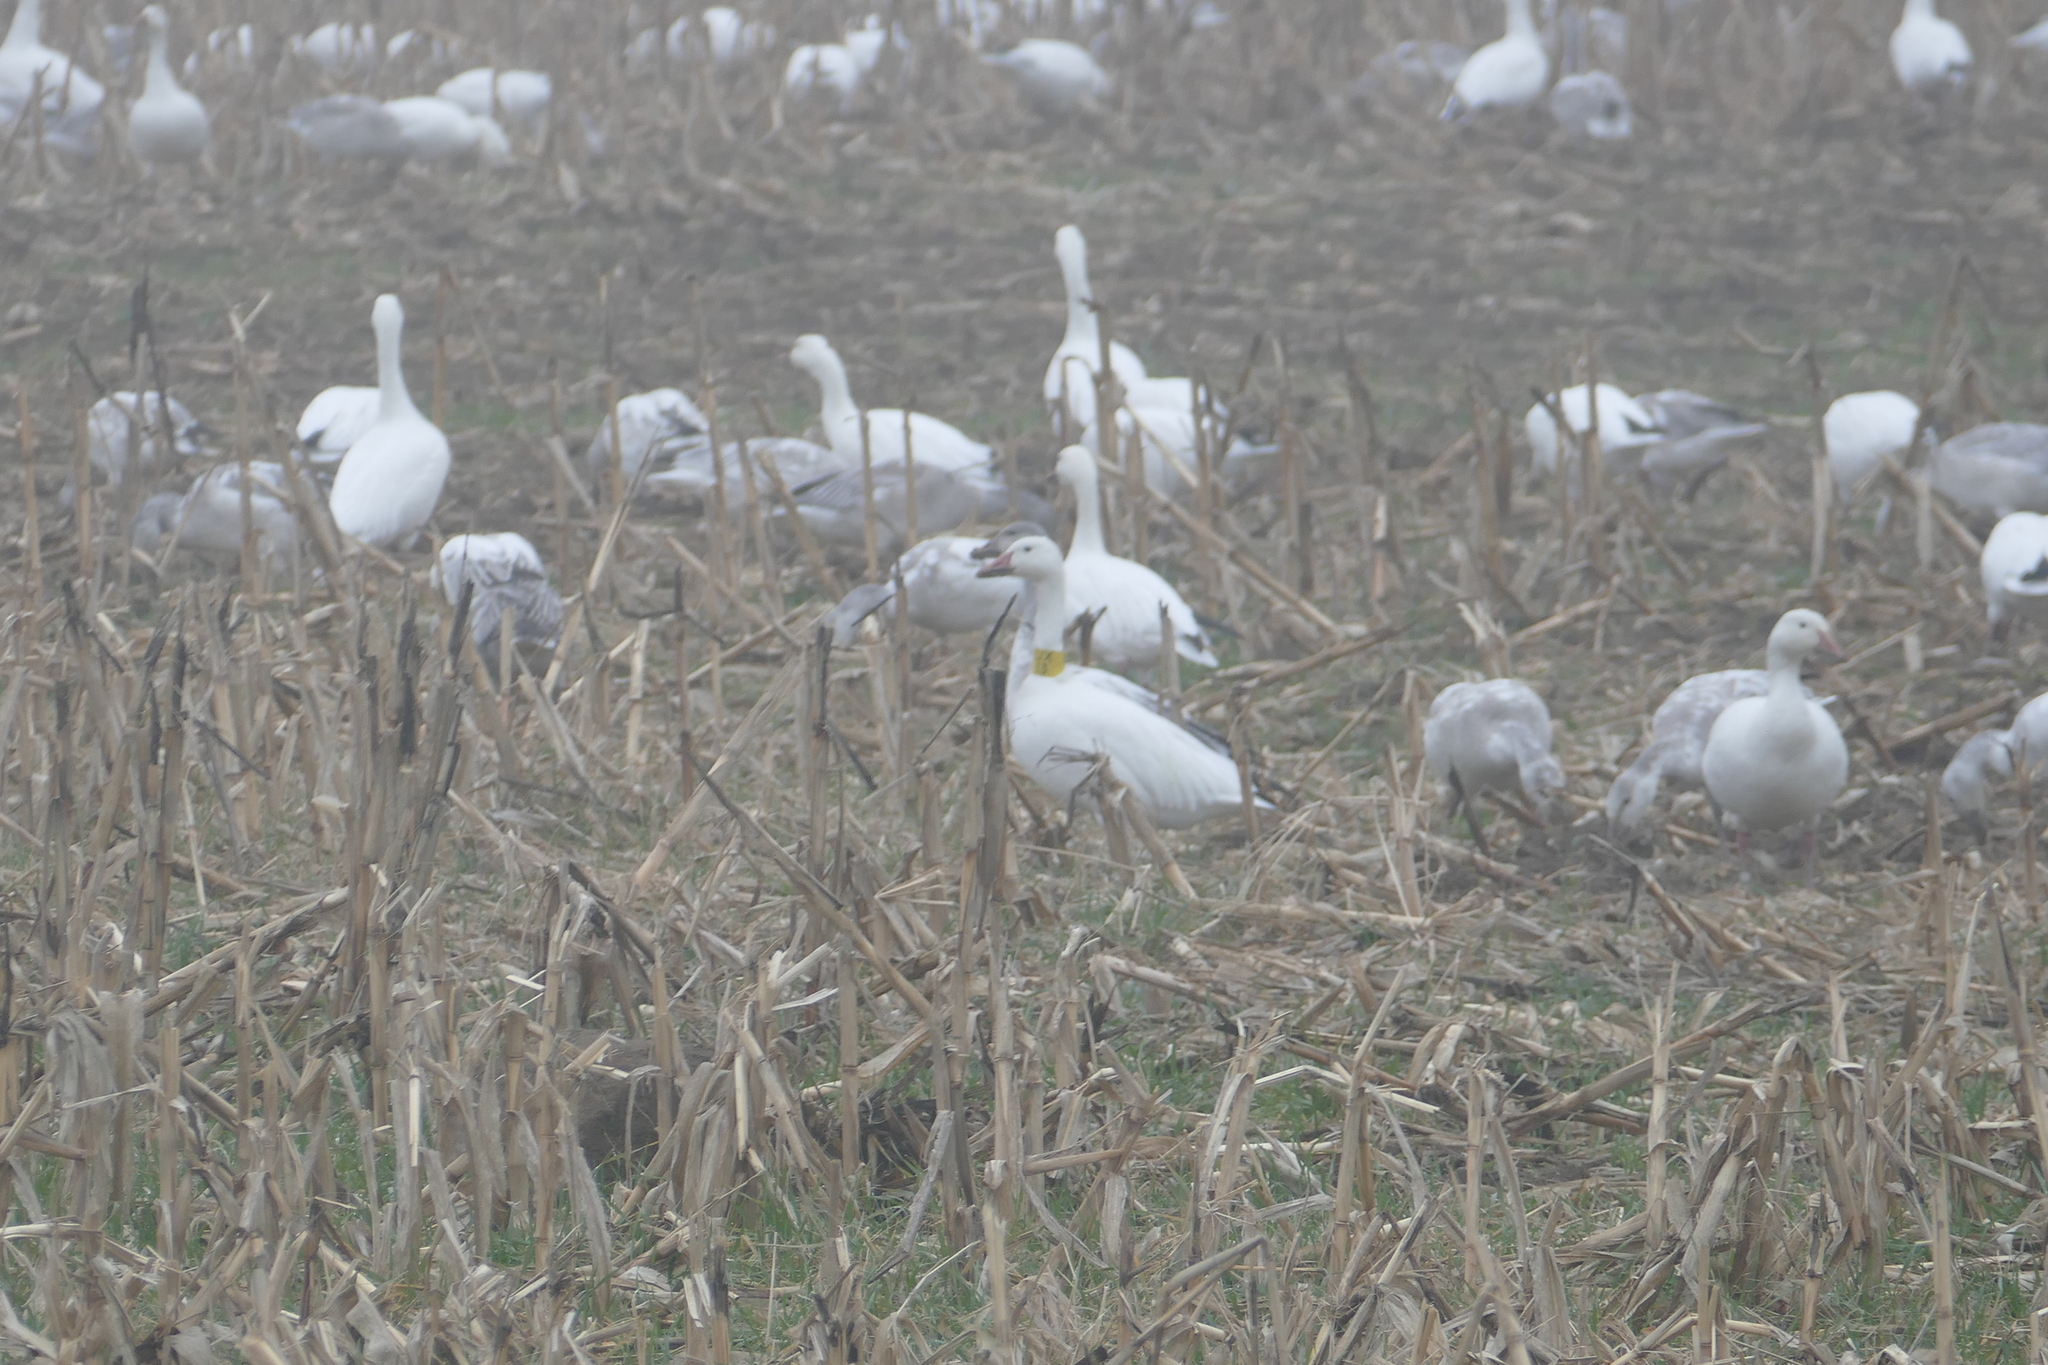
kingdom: Animalia
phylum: Chordata
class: Aves
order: Anseriformes
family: Anatidae
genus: Anser
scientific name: Anser caerulescens
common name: Snow goose
